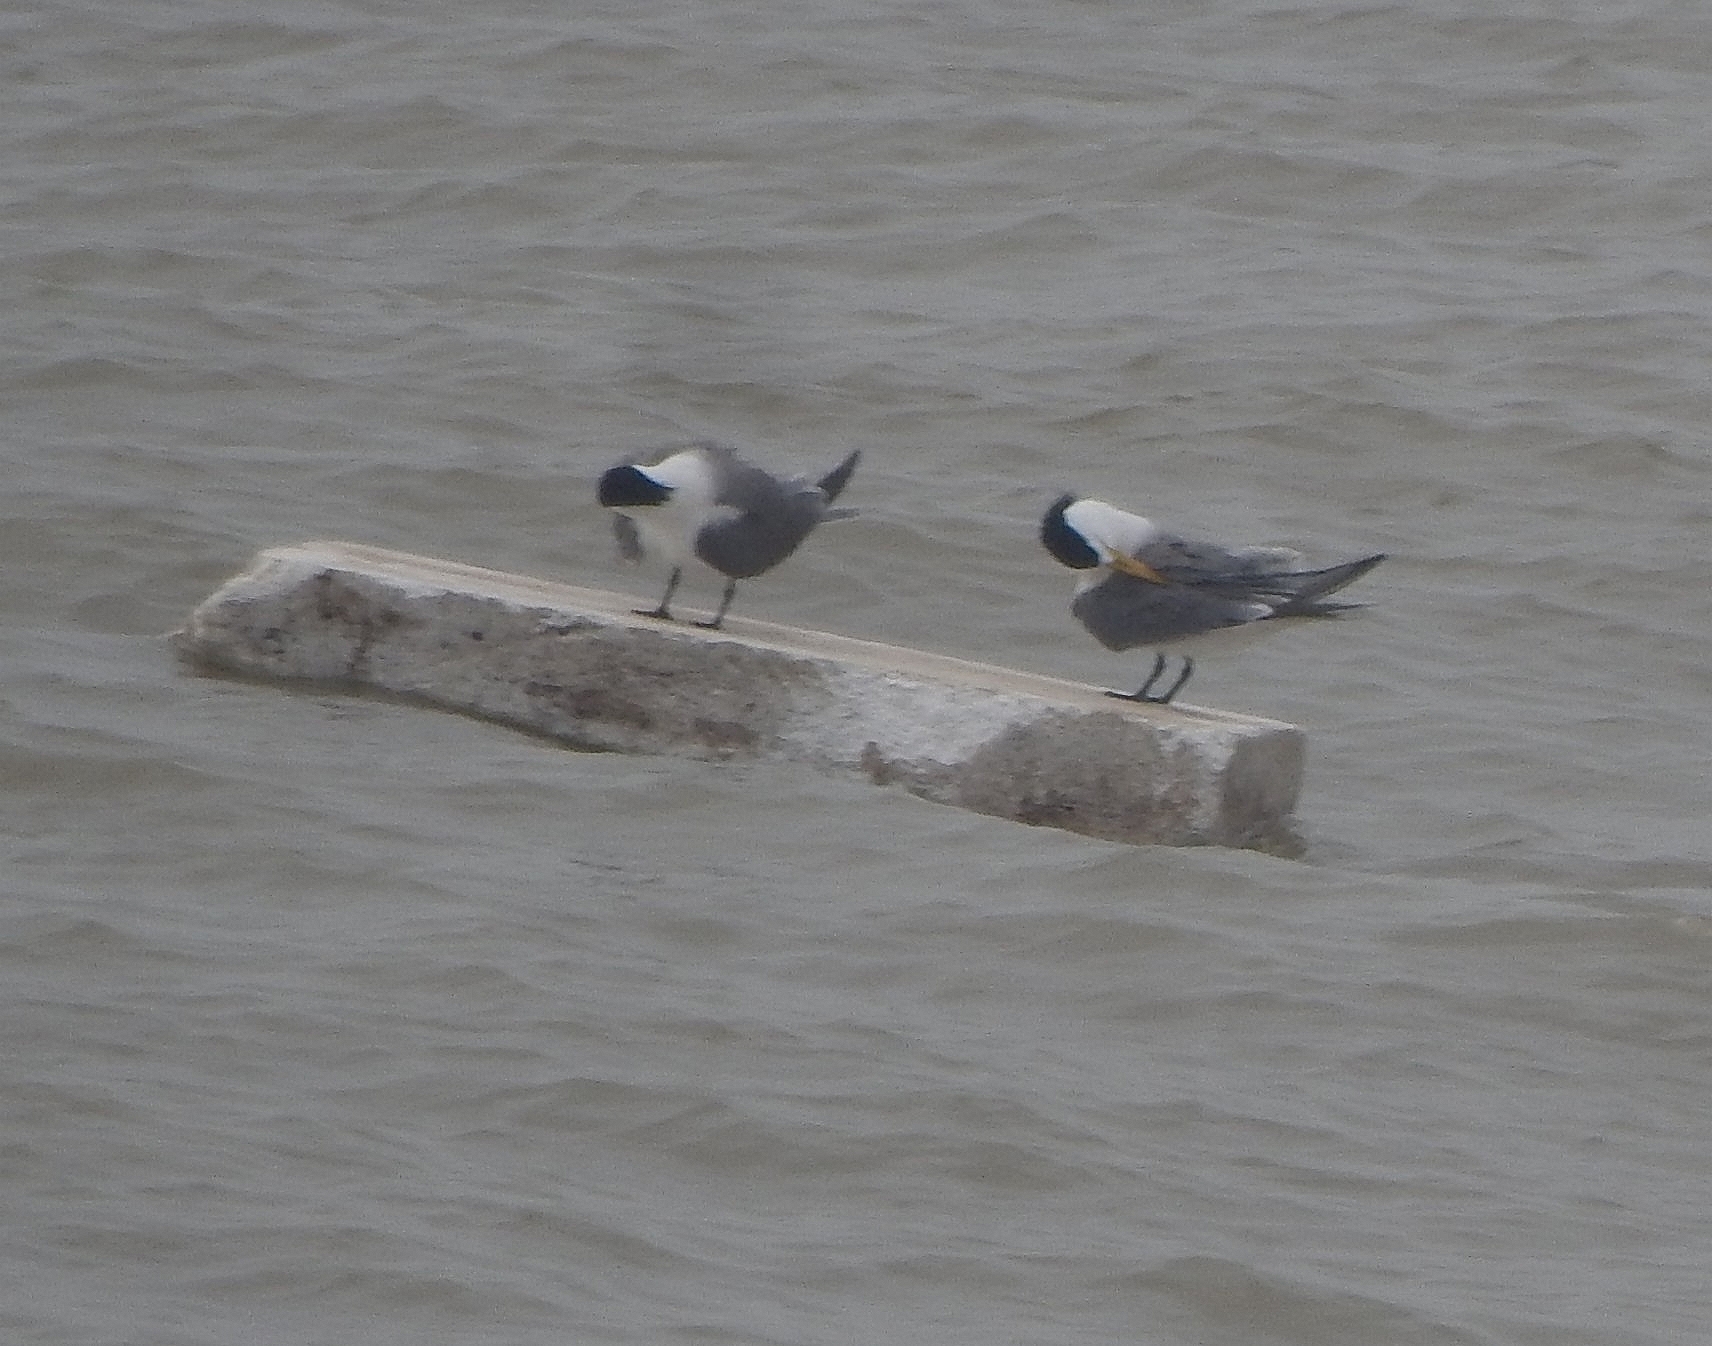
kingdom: Animalia
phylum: Chordata
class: Aves
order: Charadriiformes
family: Laridae
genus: Thalasseus
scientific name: Thalasseus bergii
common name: Greater crested tern
